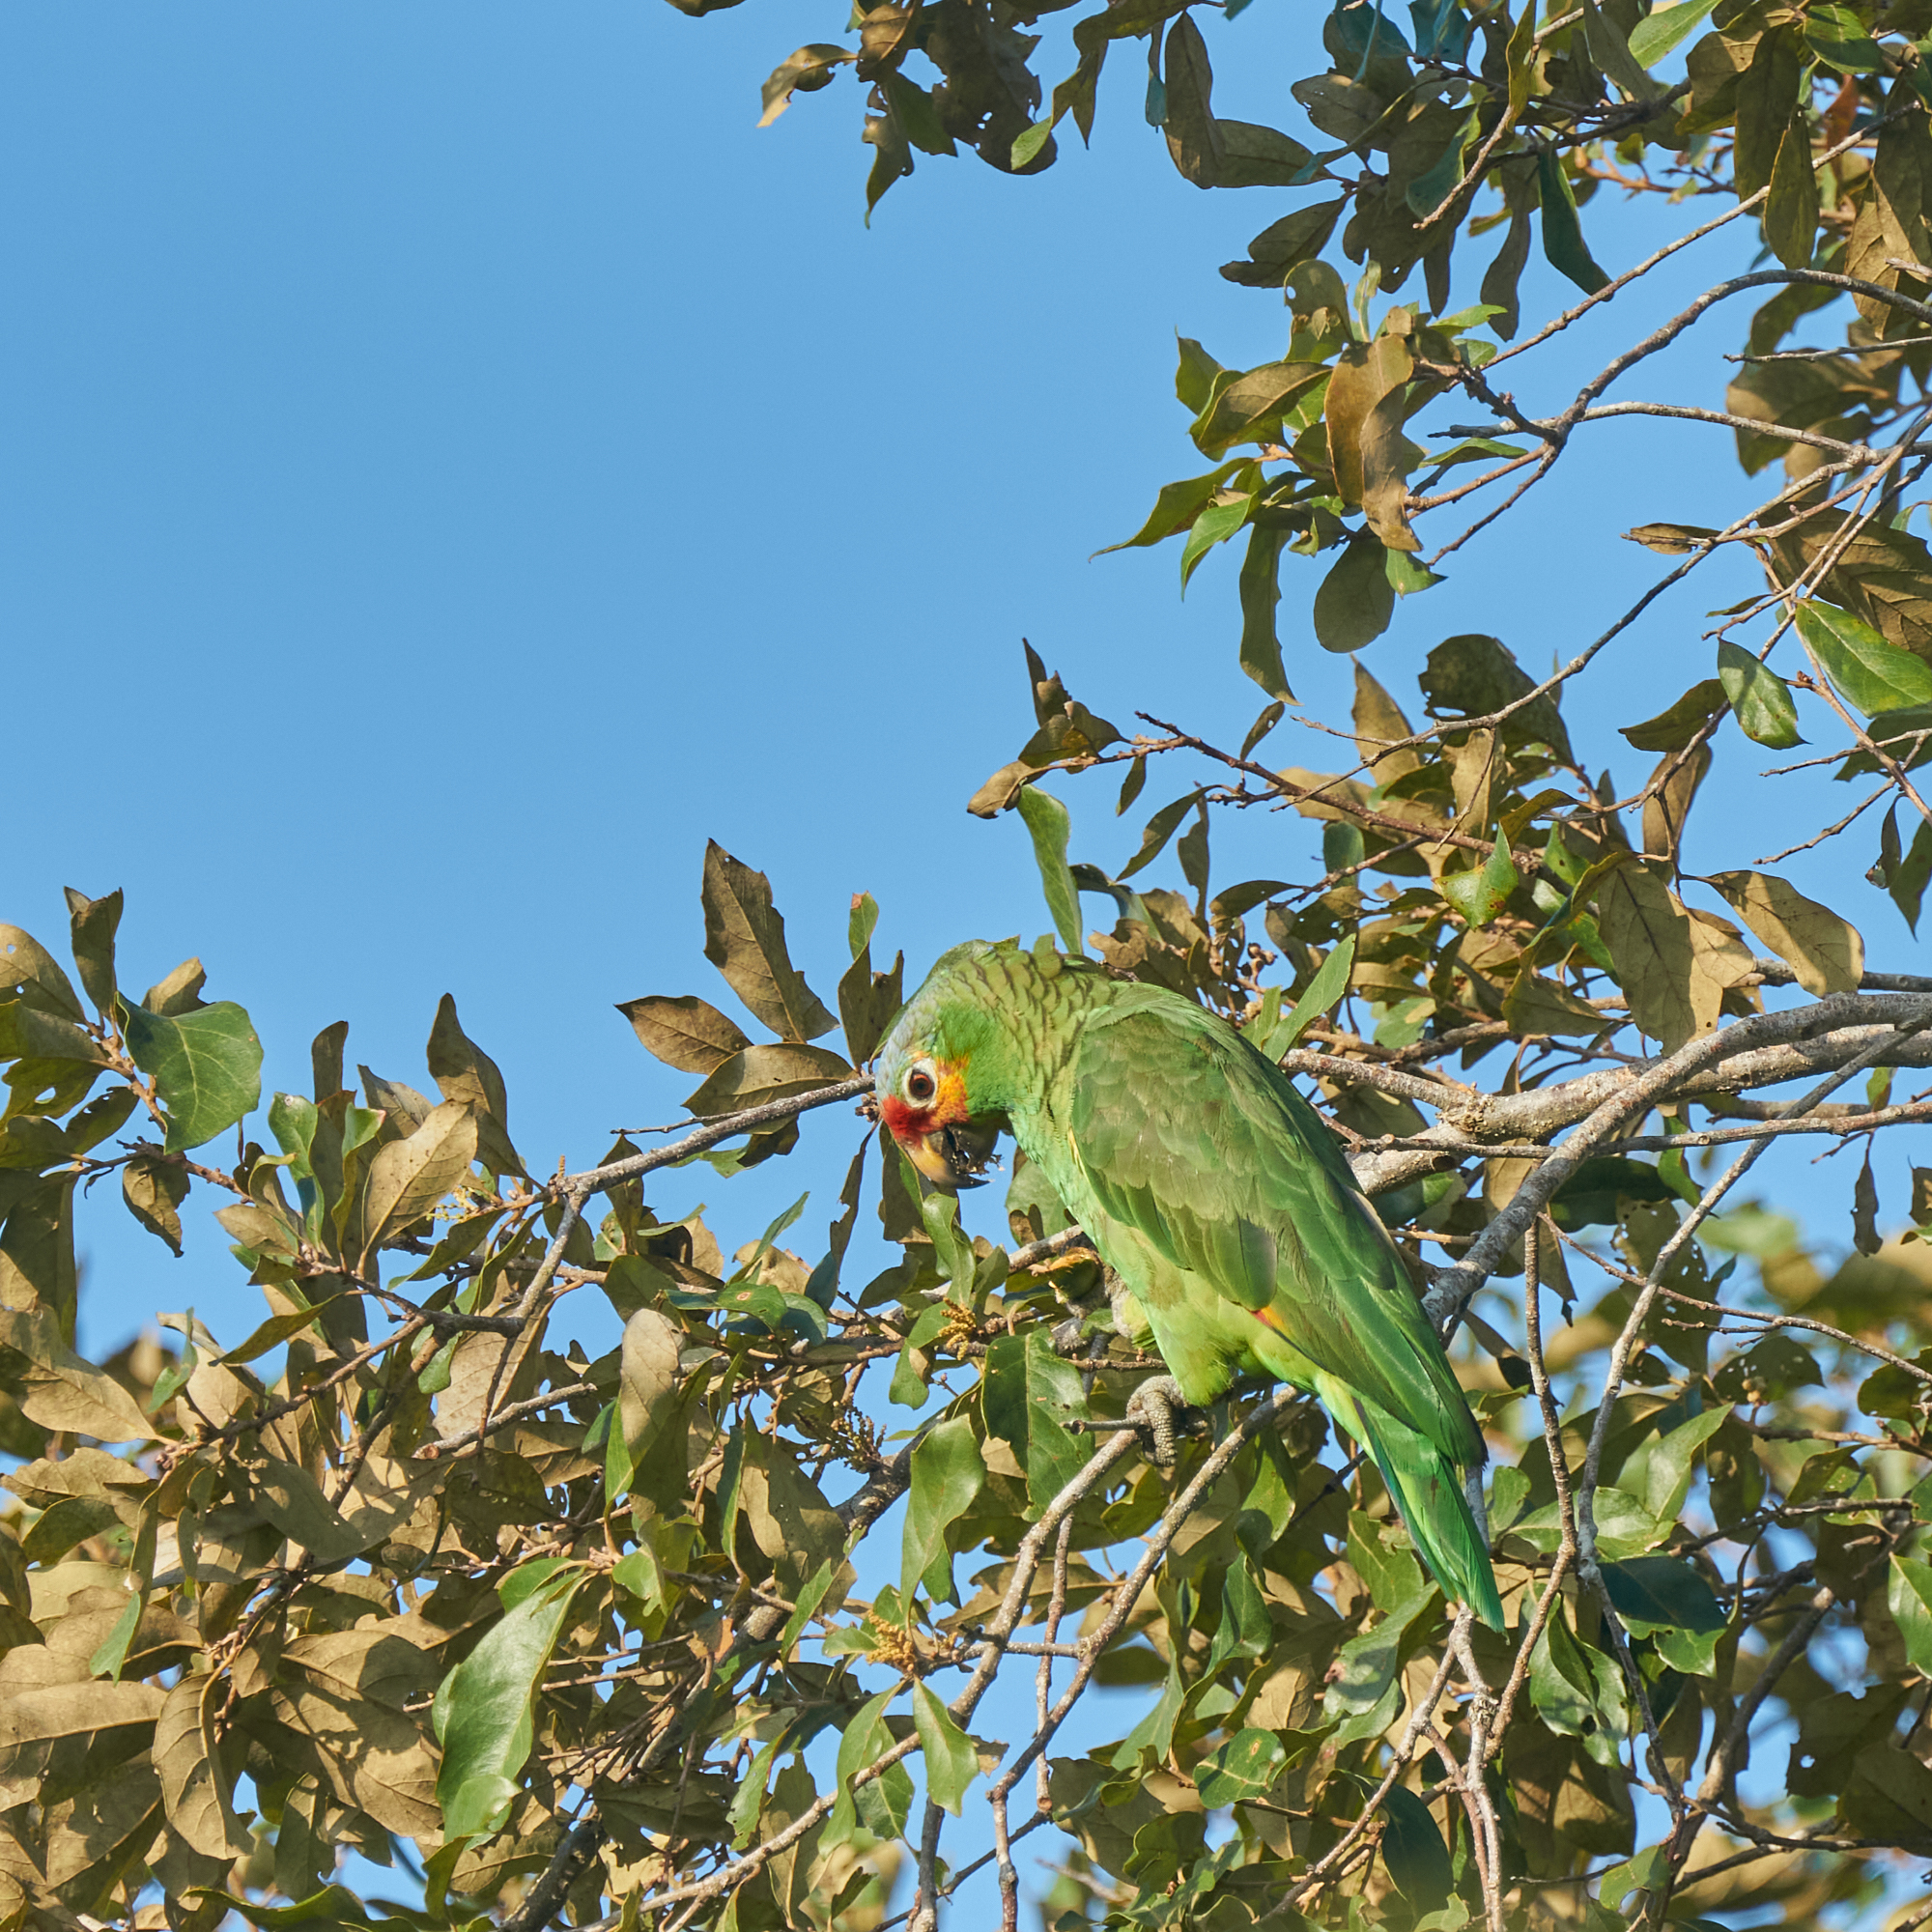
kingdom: Animalia
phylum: Chordata
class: Aves
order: Psittaciformes
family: Psittacidae
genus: Amazona
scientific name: Amazona autumnalis
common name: Red-lored amazon
